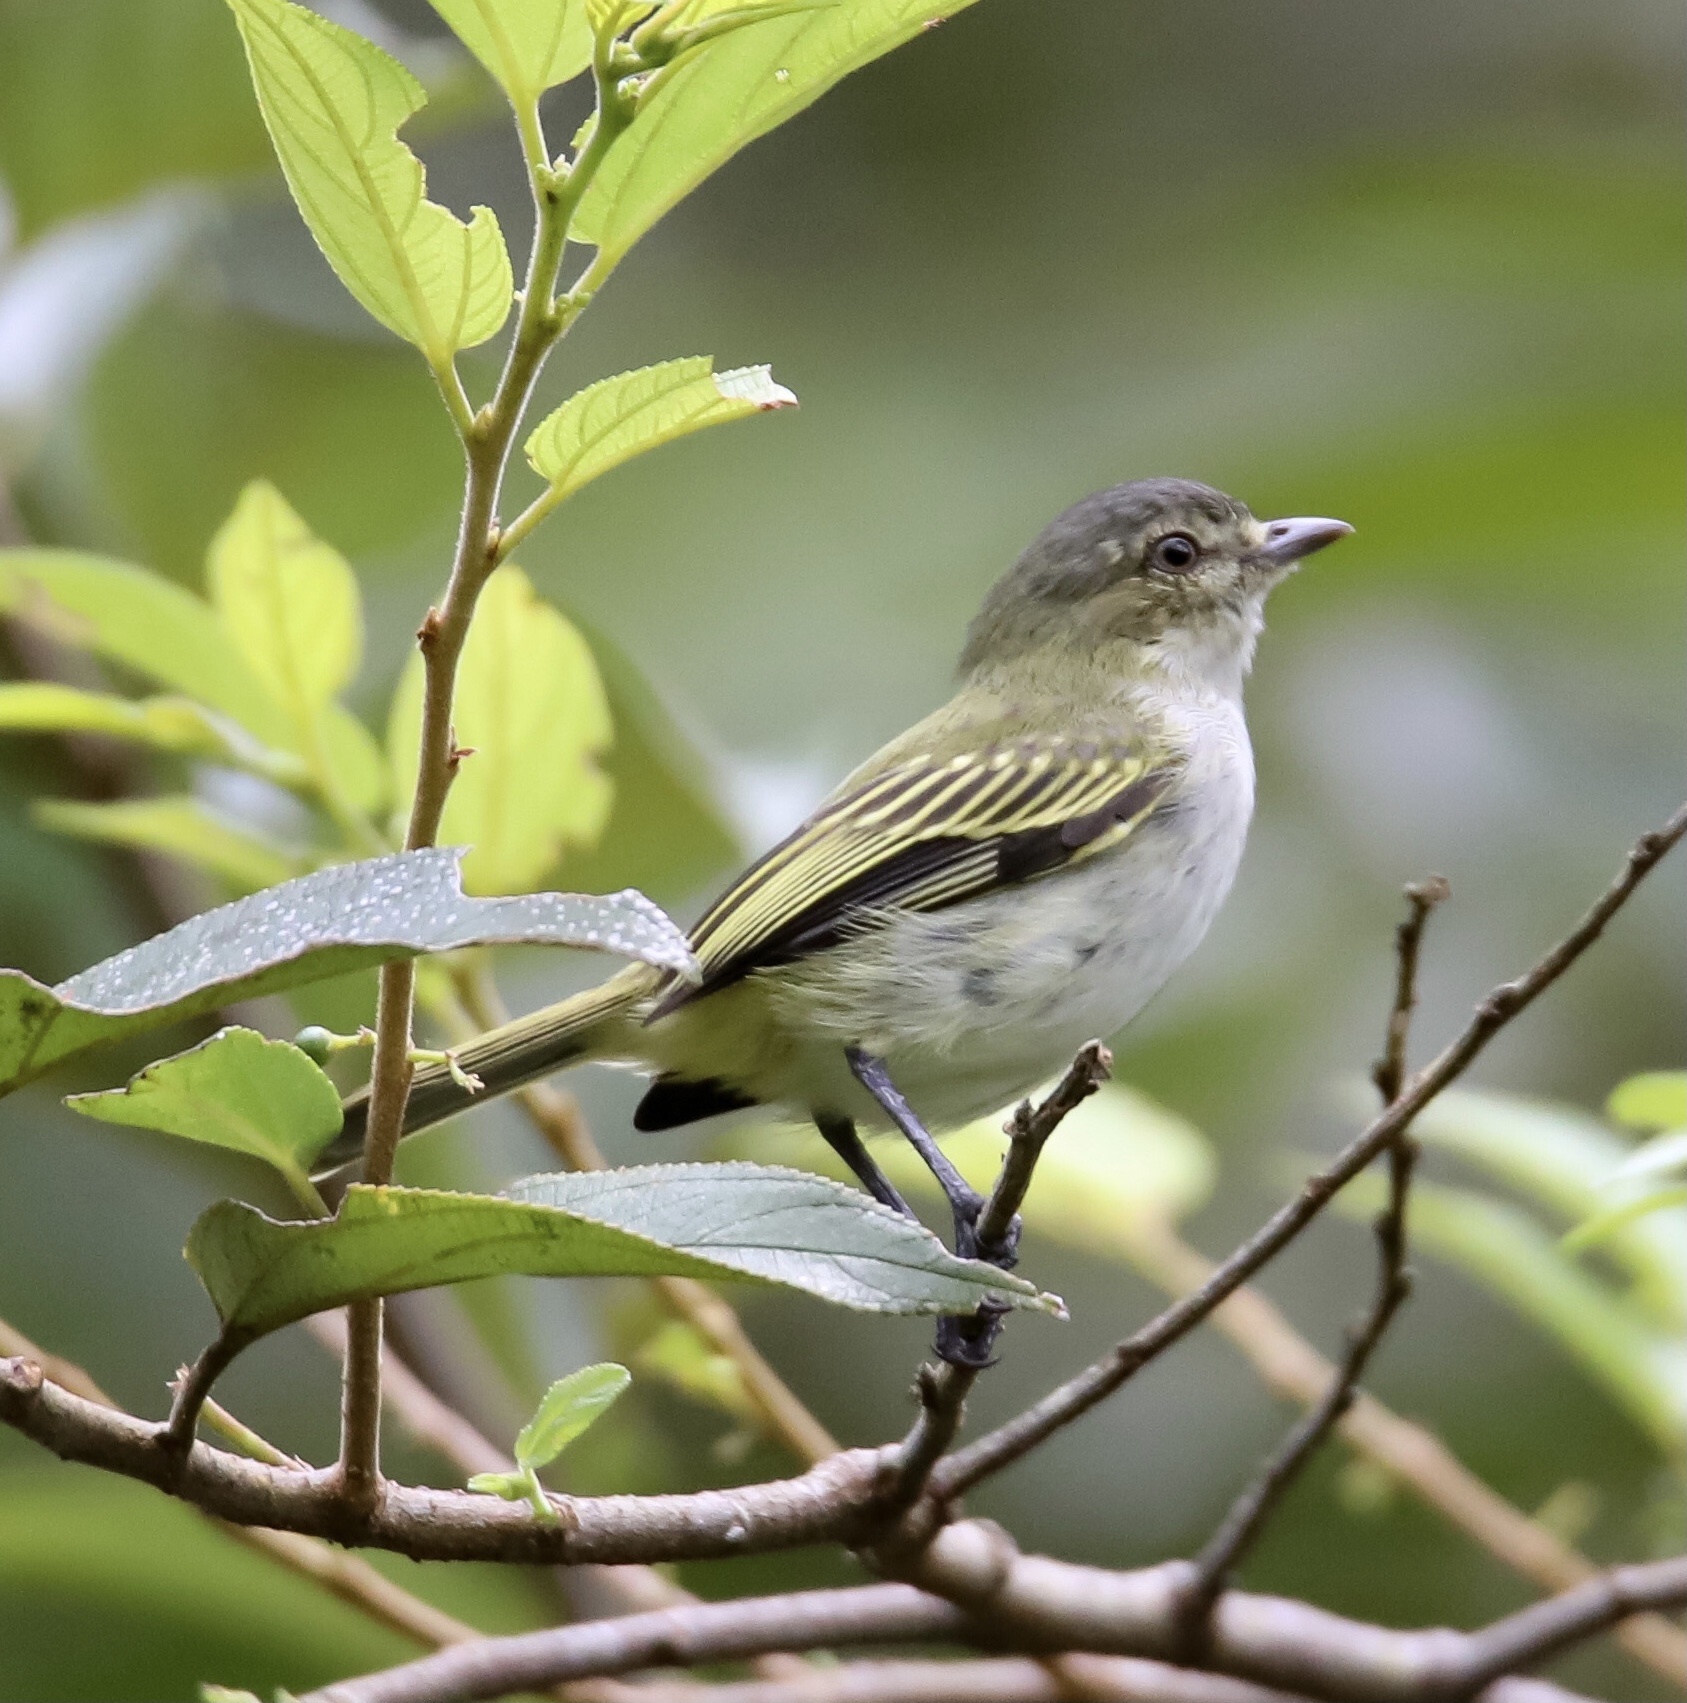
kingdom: Animalia
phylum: Chordata
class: Aves
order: Passeriformes
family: Tyrannidae
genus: Zimmerius
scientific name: Zimmerius vilissimus
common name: Paltry tyrannulet
